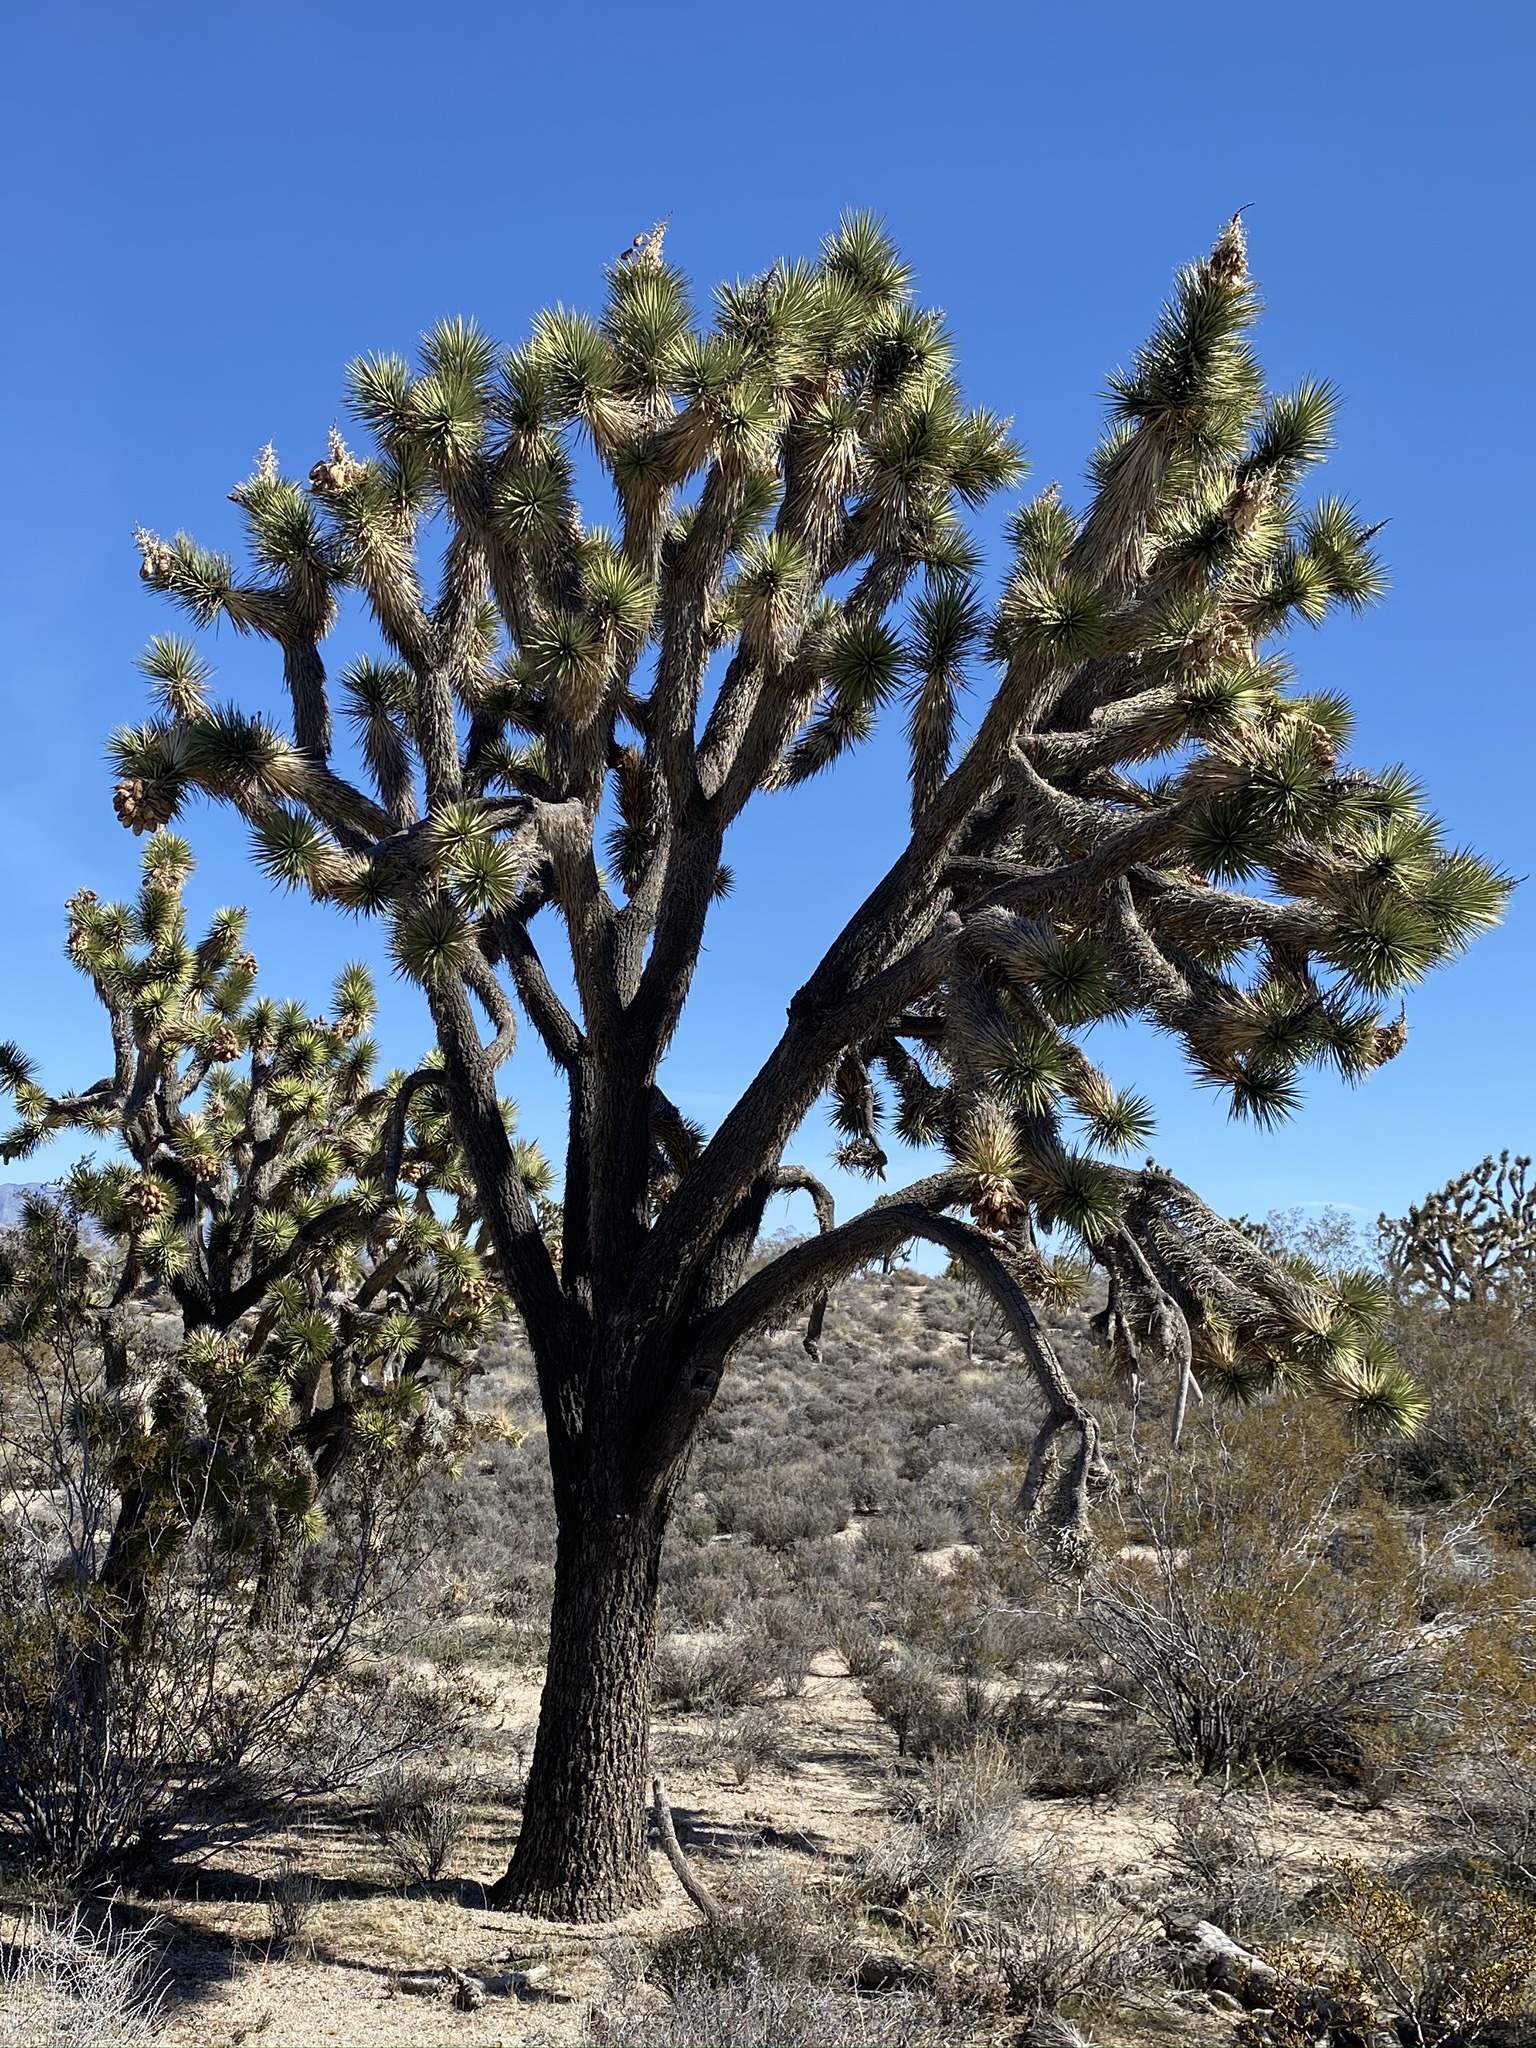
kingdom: Plantae
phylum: Tracheophyta
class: Liliopsida
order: Asparagales
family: Asparagaceae
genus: Yucca
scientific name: Yucca brevifolia
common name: Joshua tree
